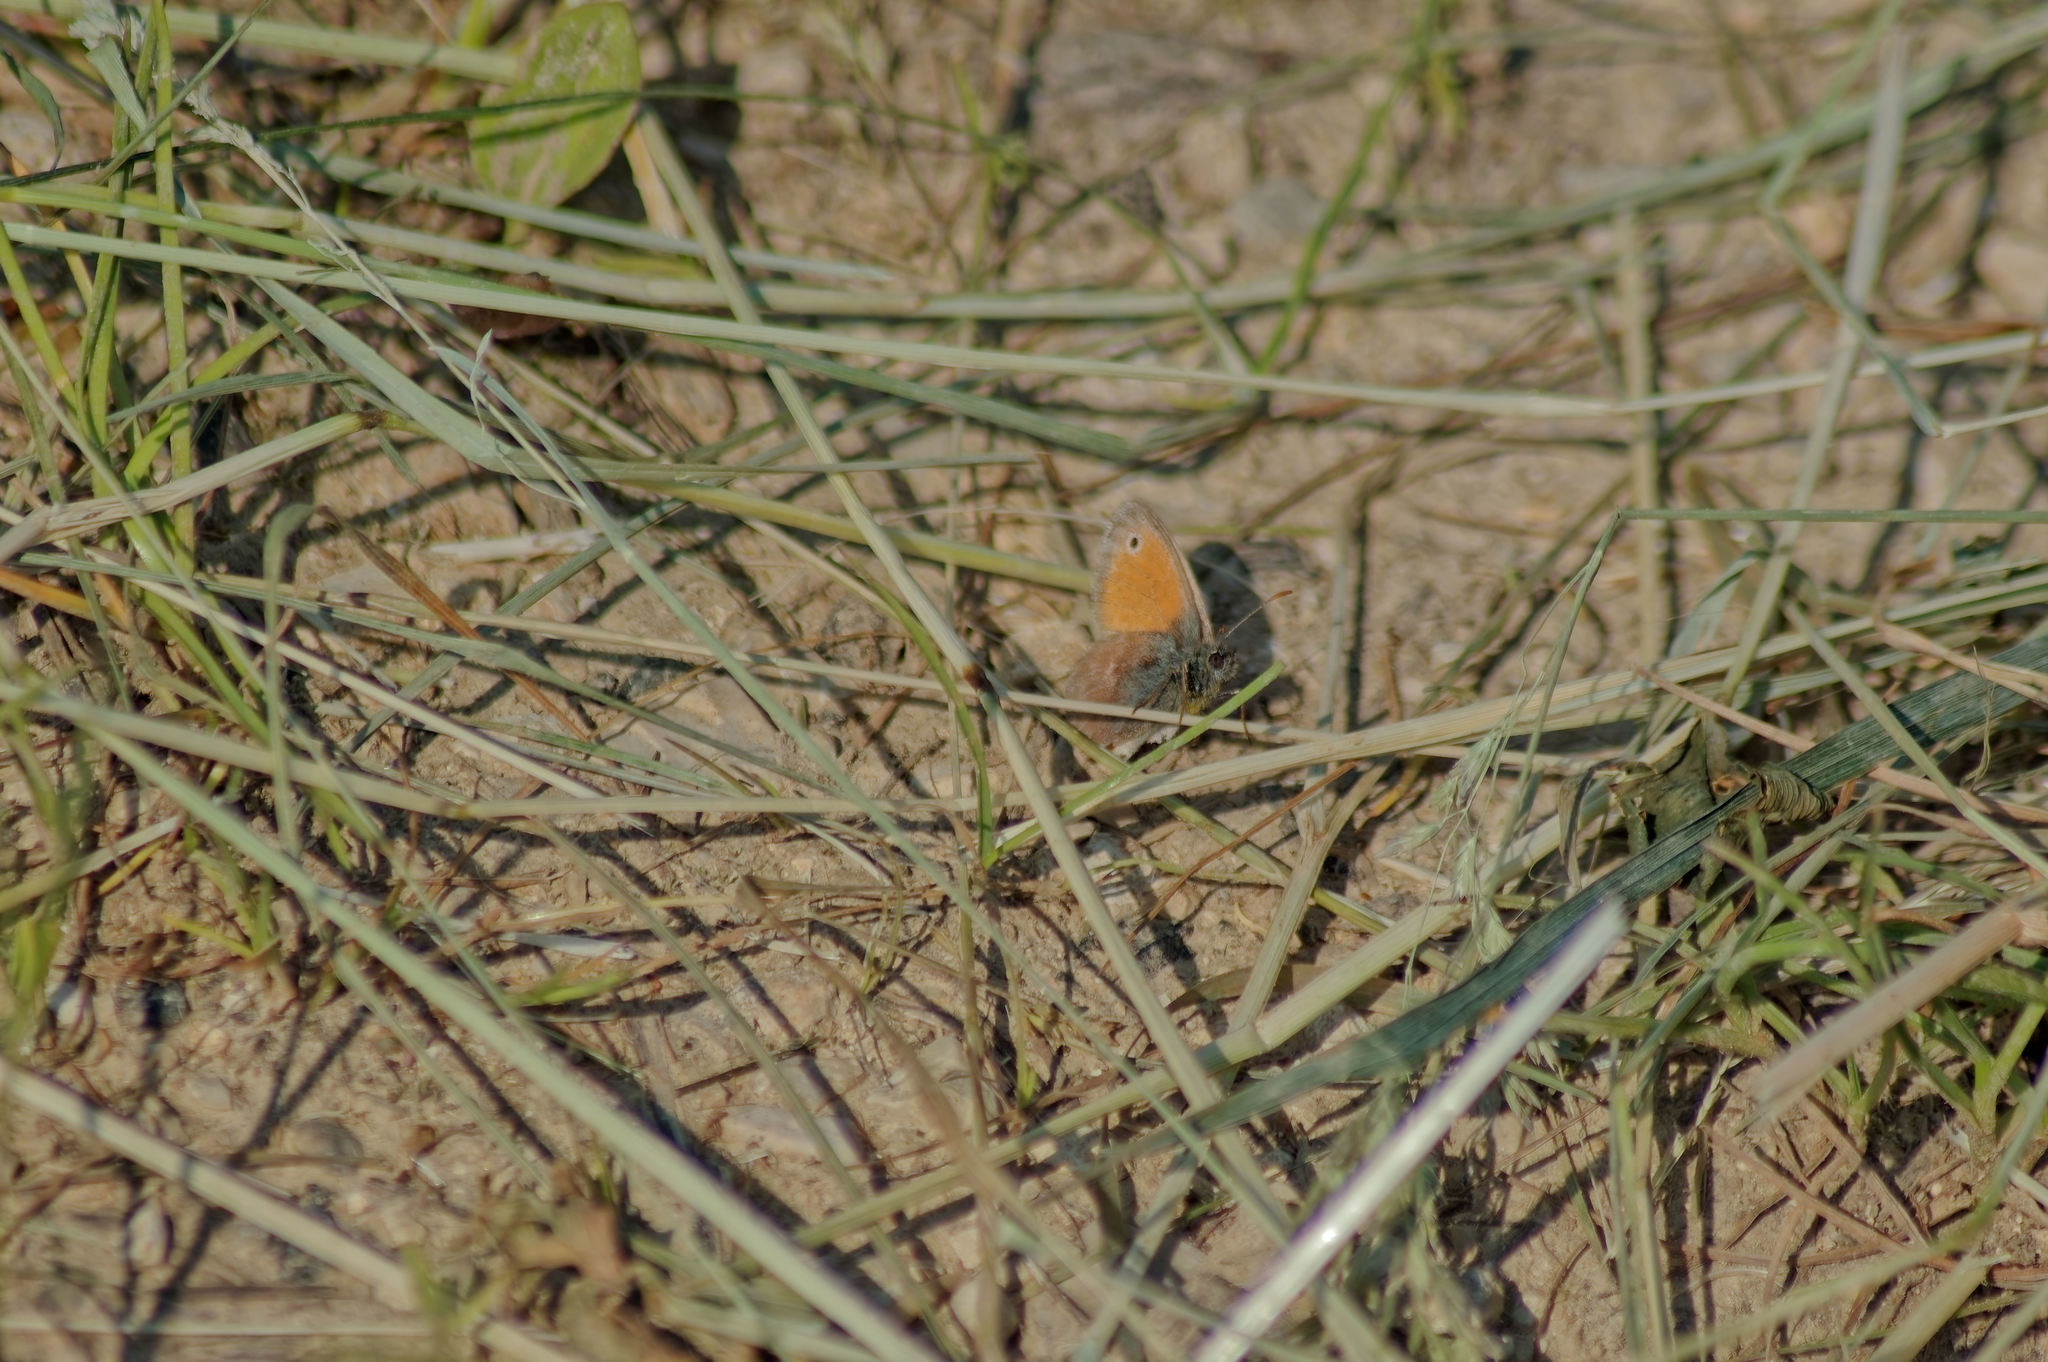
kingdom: Animalia
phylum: Arthropoda
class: Insecta
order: Lepidoptera
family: Nymphalidae
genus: Coenonympha
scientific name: Coenonympha pamphilus
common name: Small heath
